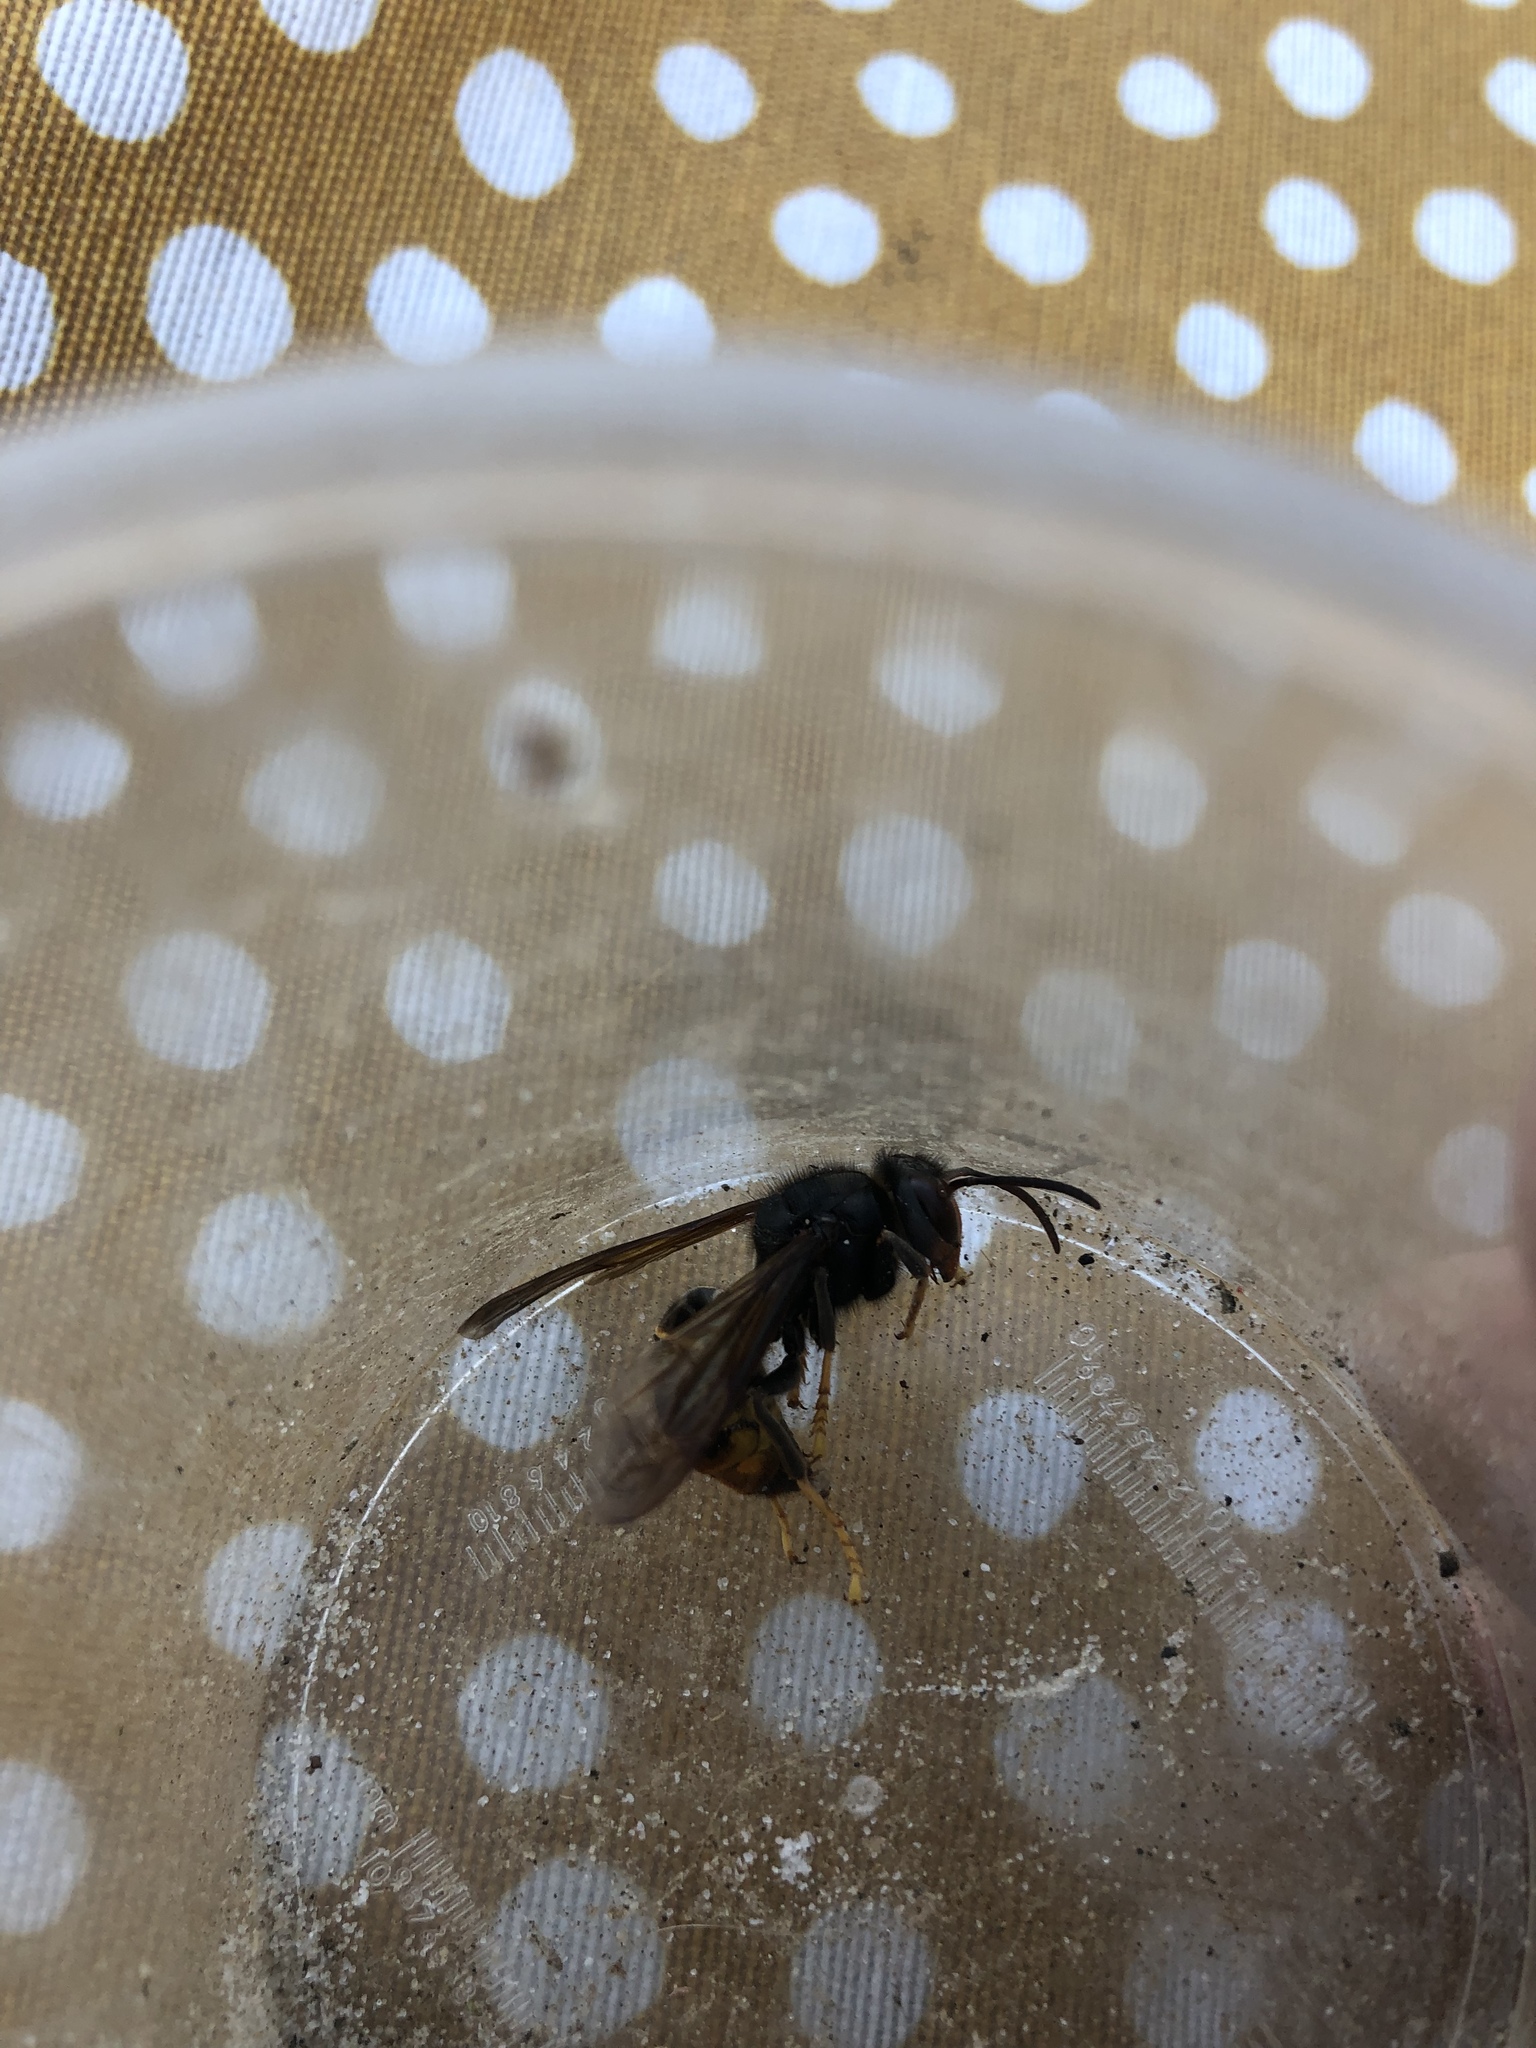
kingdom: Animalia
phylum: Arthropoda
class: Insecta
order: Hymenoptera
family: Vespidae
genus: Vespa
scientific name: Vespa velutina
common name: Asian hornet
